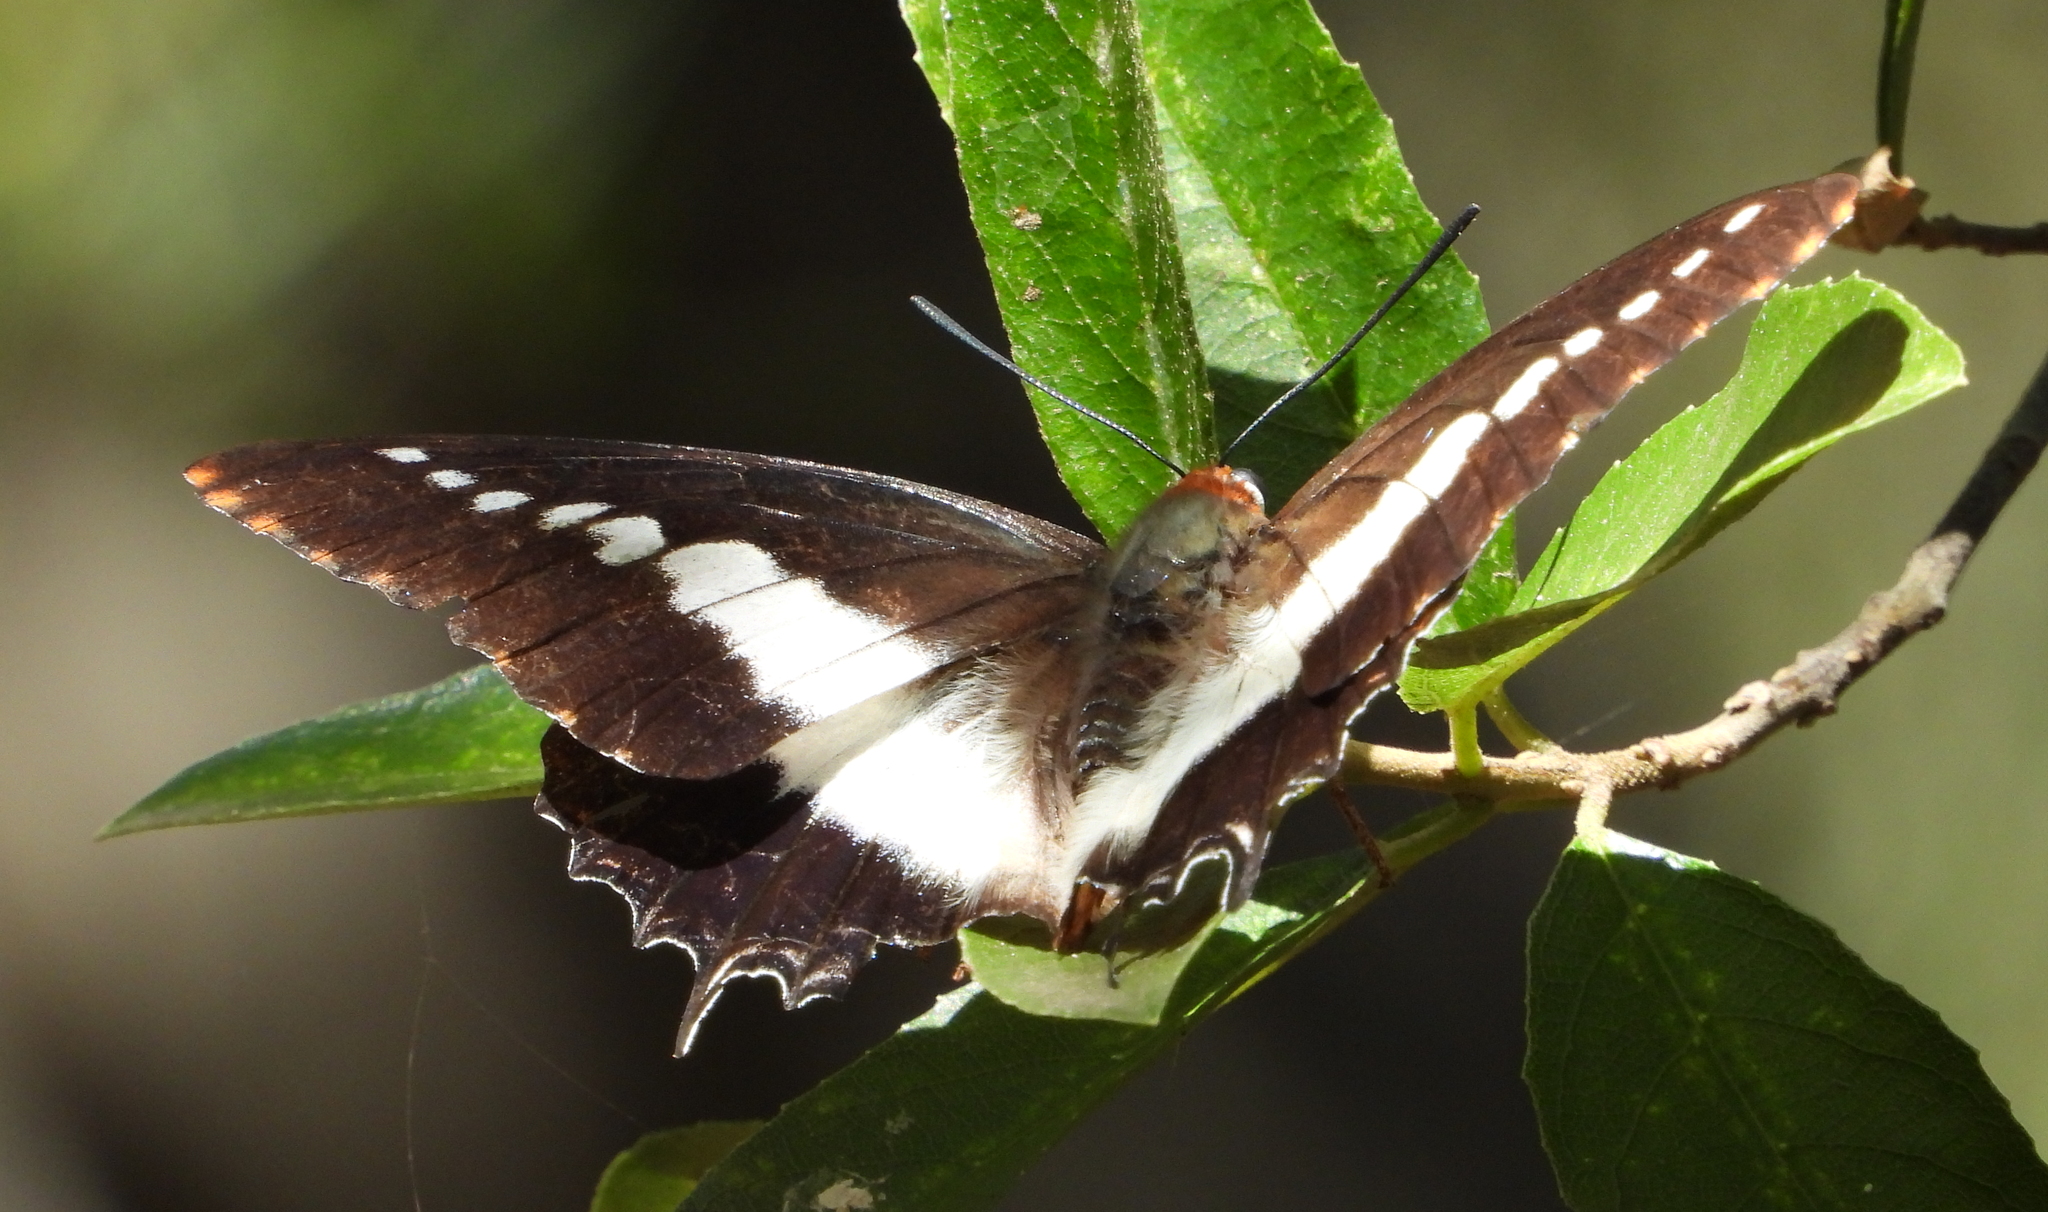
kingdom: Animalia
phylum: Arthropoda
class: Insecta
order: Lepidoptera
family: Nymphalidae
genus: Charaxes
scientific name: Charaxes brutus
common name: White-barred charaxes
